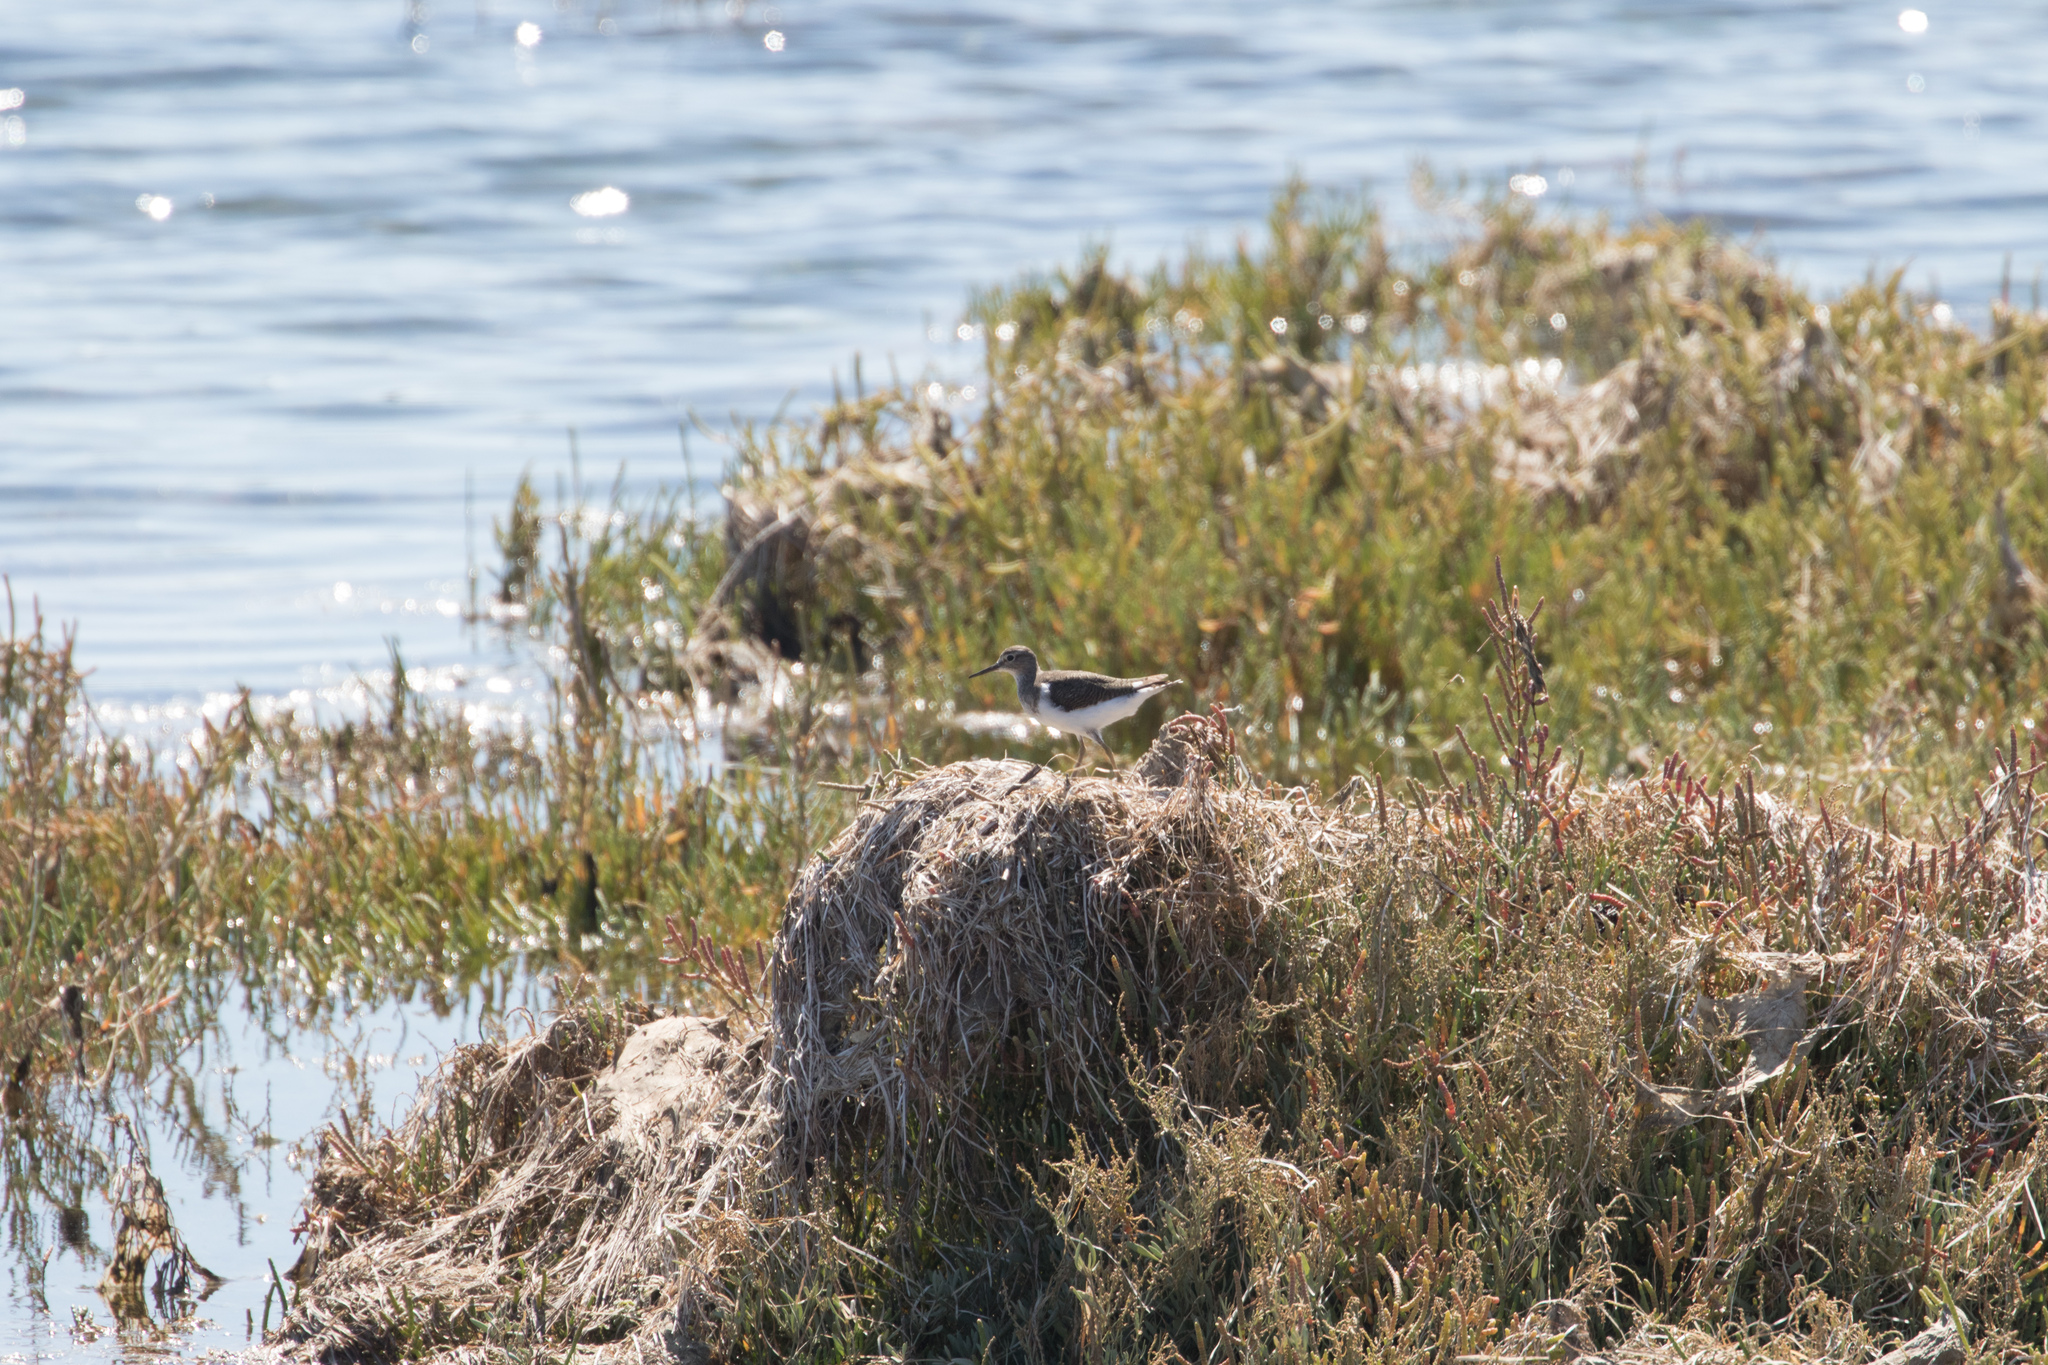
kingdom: Animalia
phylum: Chordata
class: Aves
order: Charadriiformes
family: Scolopacidae
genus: Actitis
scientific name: Actitis hypoleucos
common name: Common sandpiper
